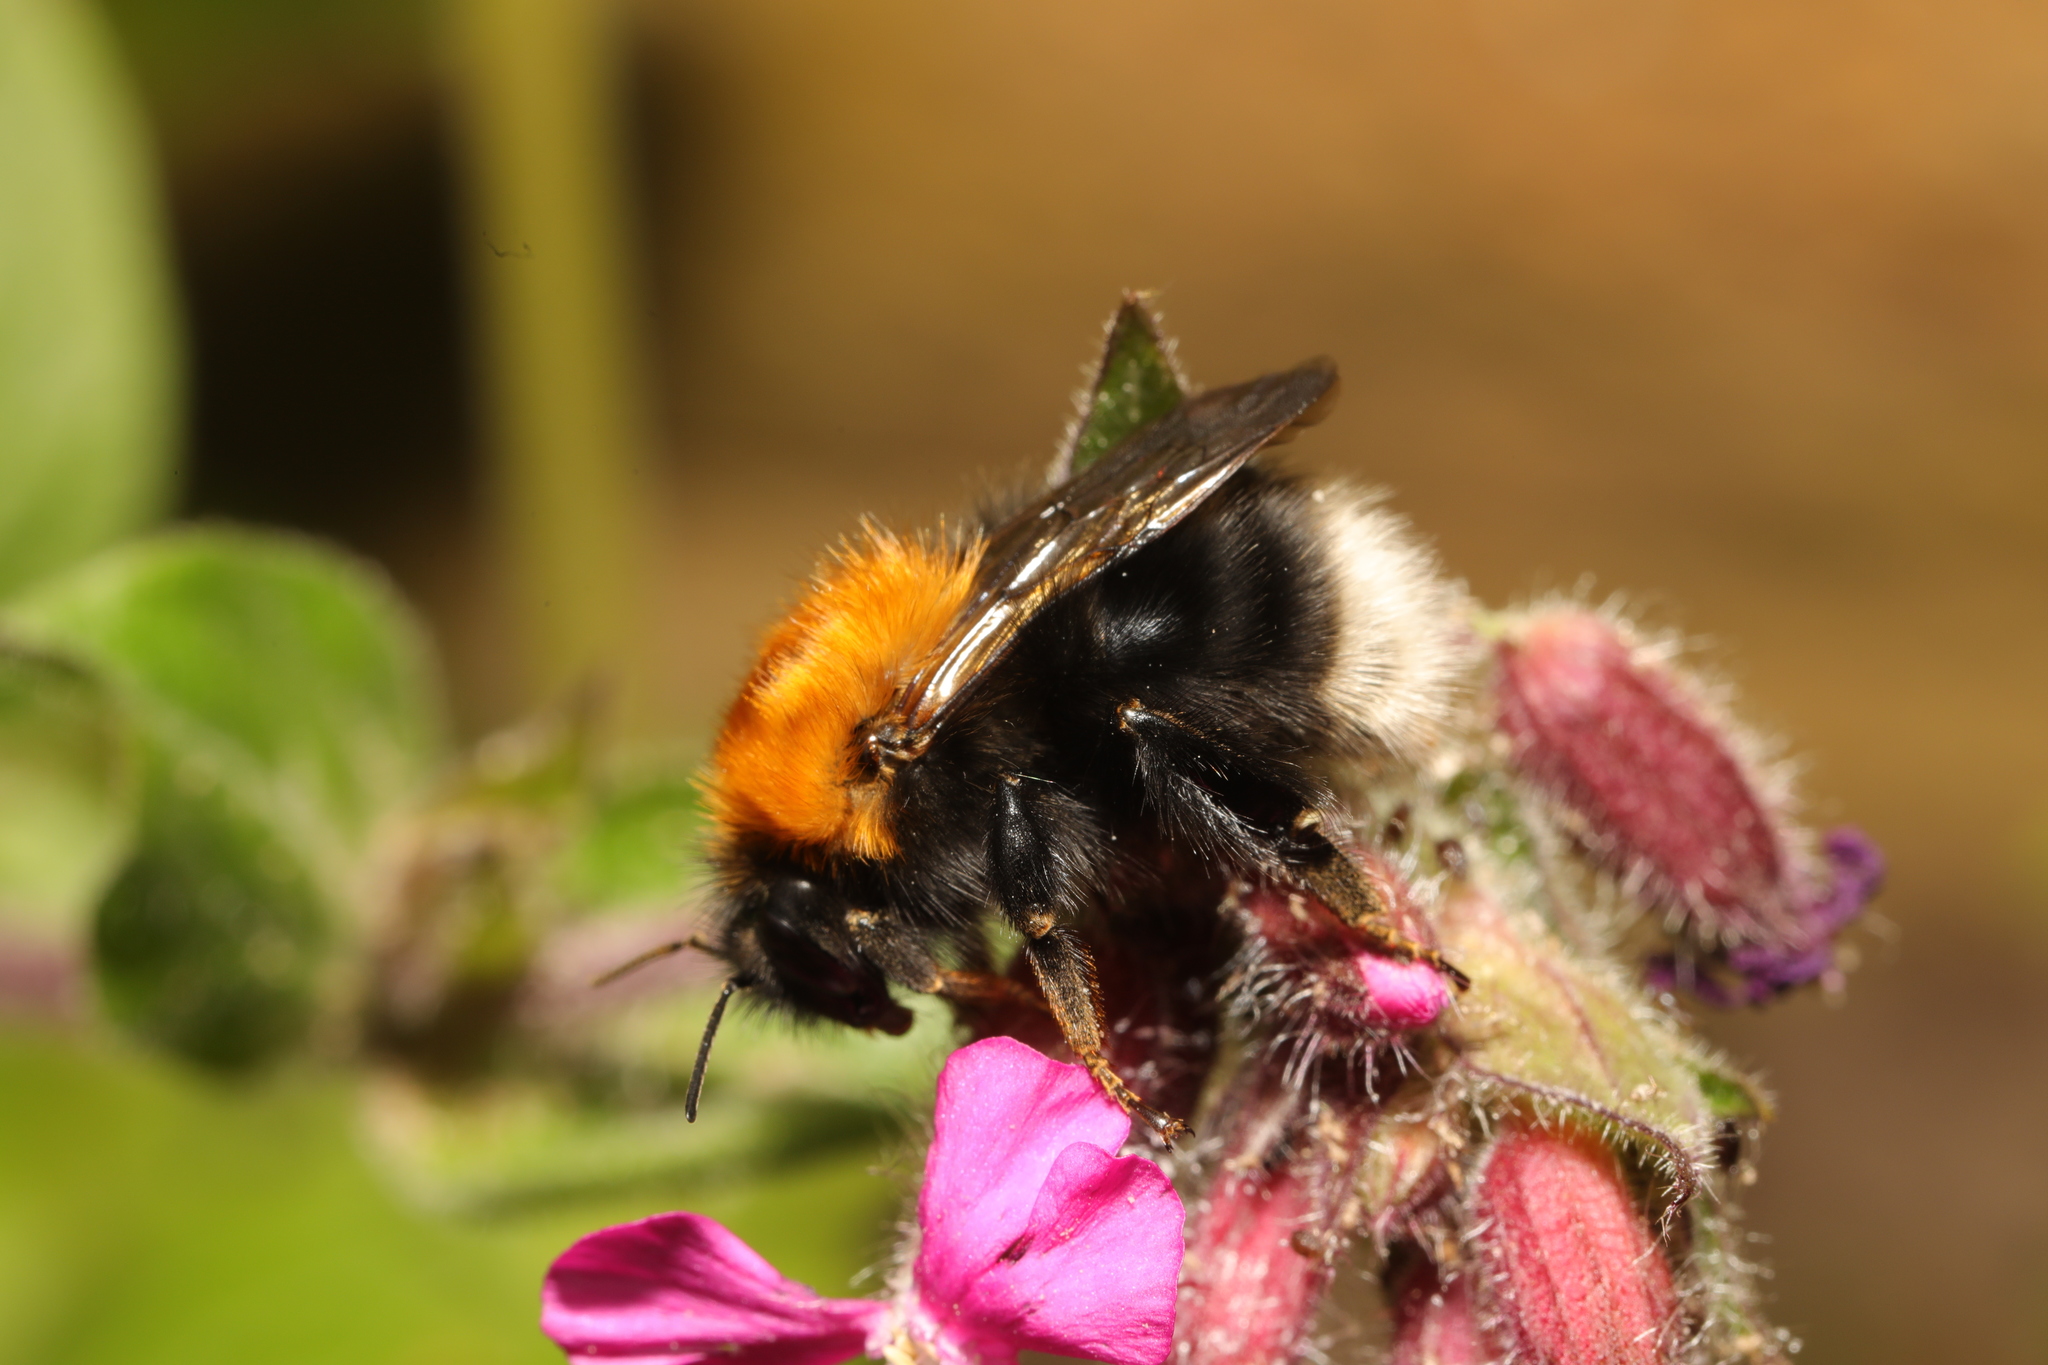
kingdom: Animalia
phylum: Arthropoda
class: Insecta
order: Hymenoptera
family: Apidae
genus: Bombus
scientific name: Bombus hypnorum
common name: New garden bumblebee
